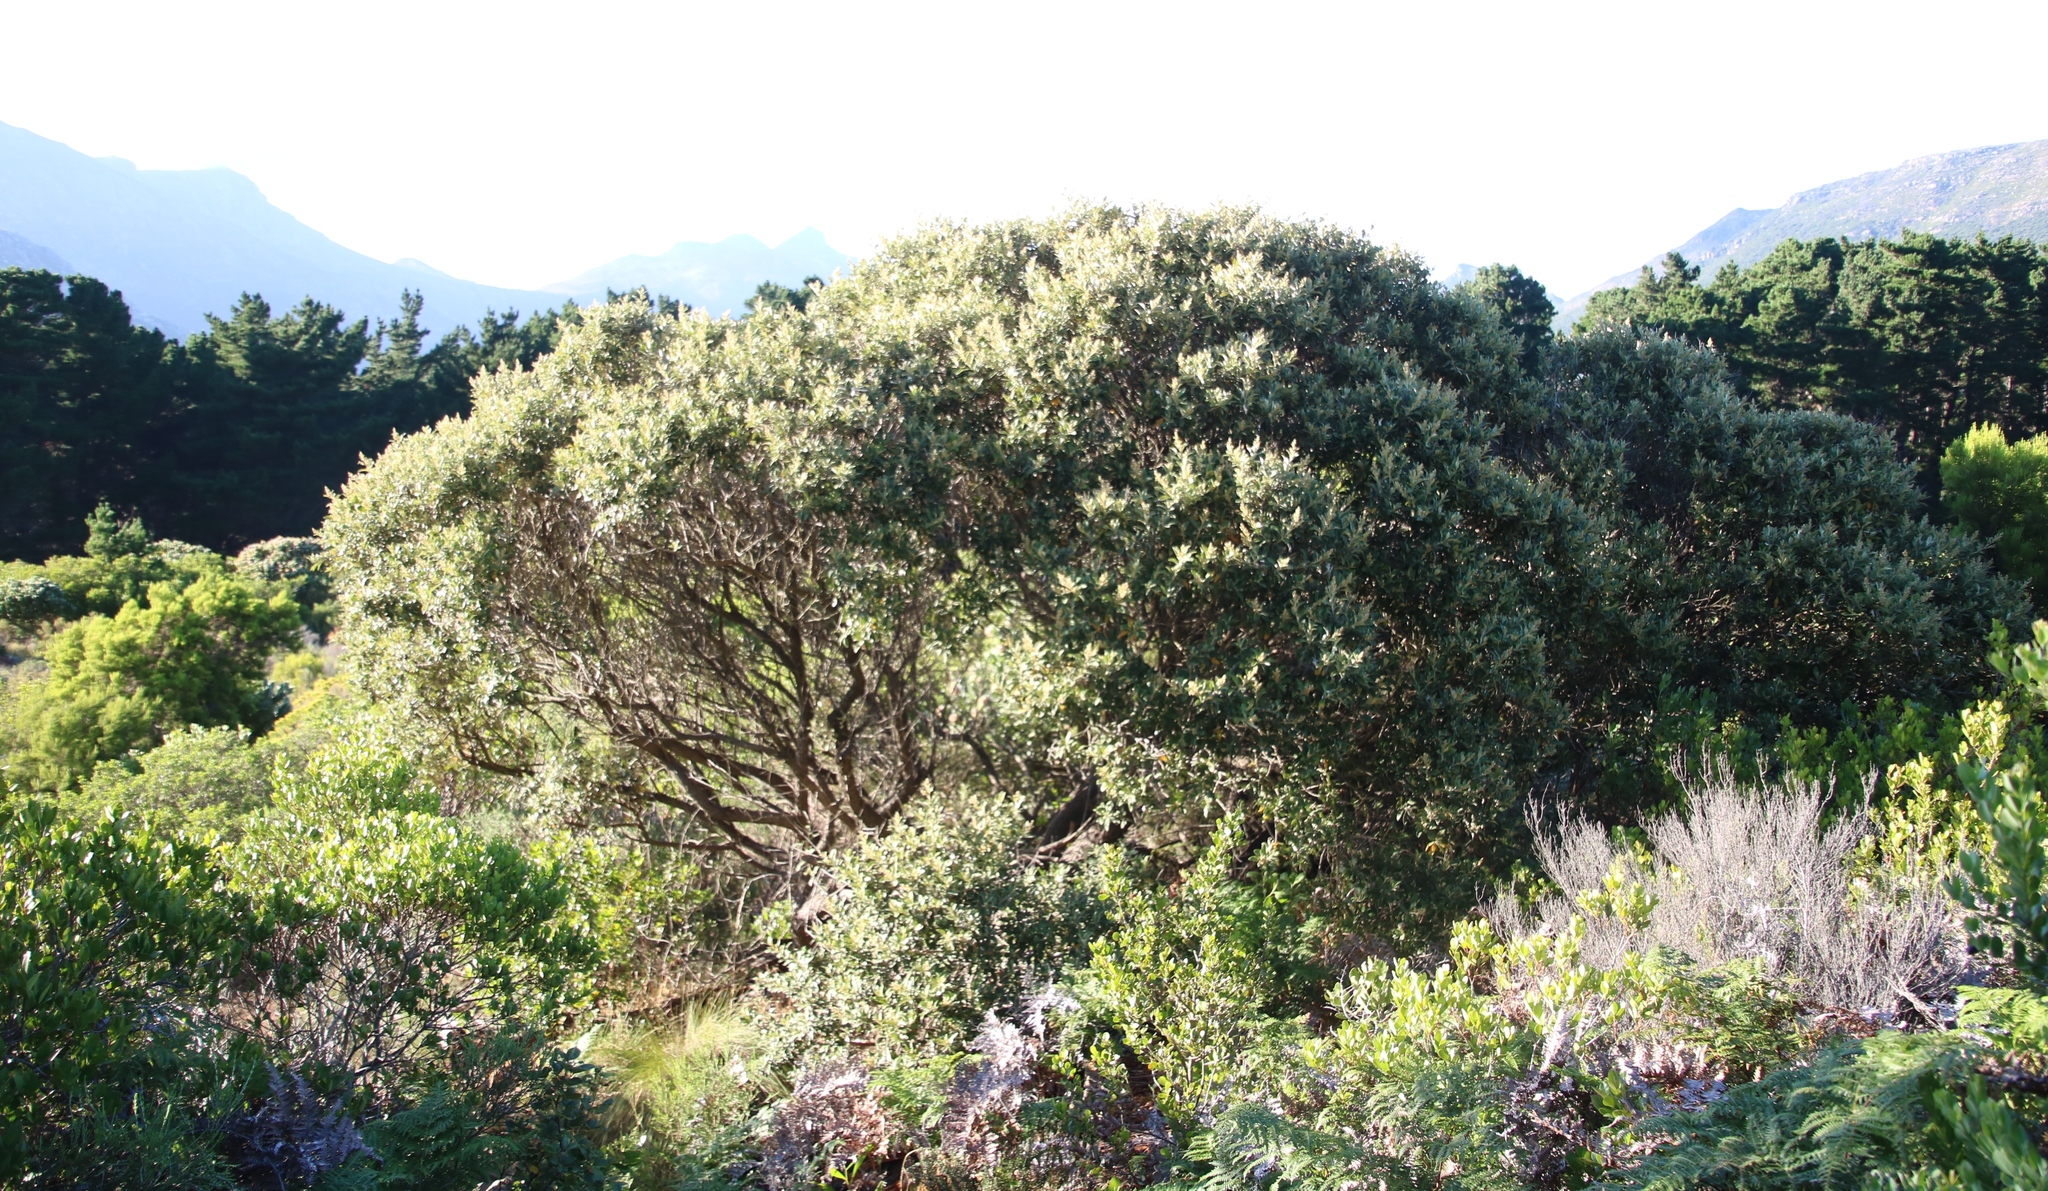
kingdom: Plantae
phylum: Tracheophyta
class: Magnoliopsida
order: Asterales
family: Asteraceae
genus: Tarchonanthus
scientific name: Tarchonanthus littoralis
